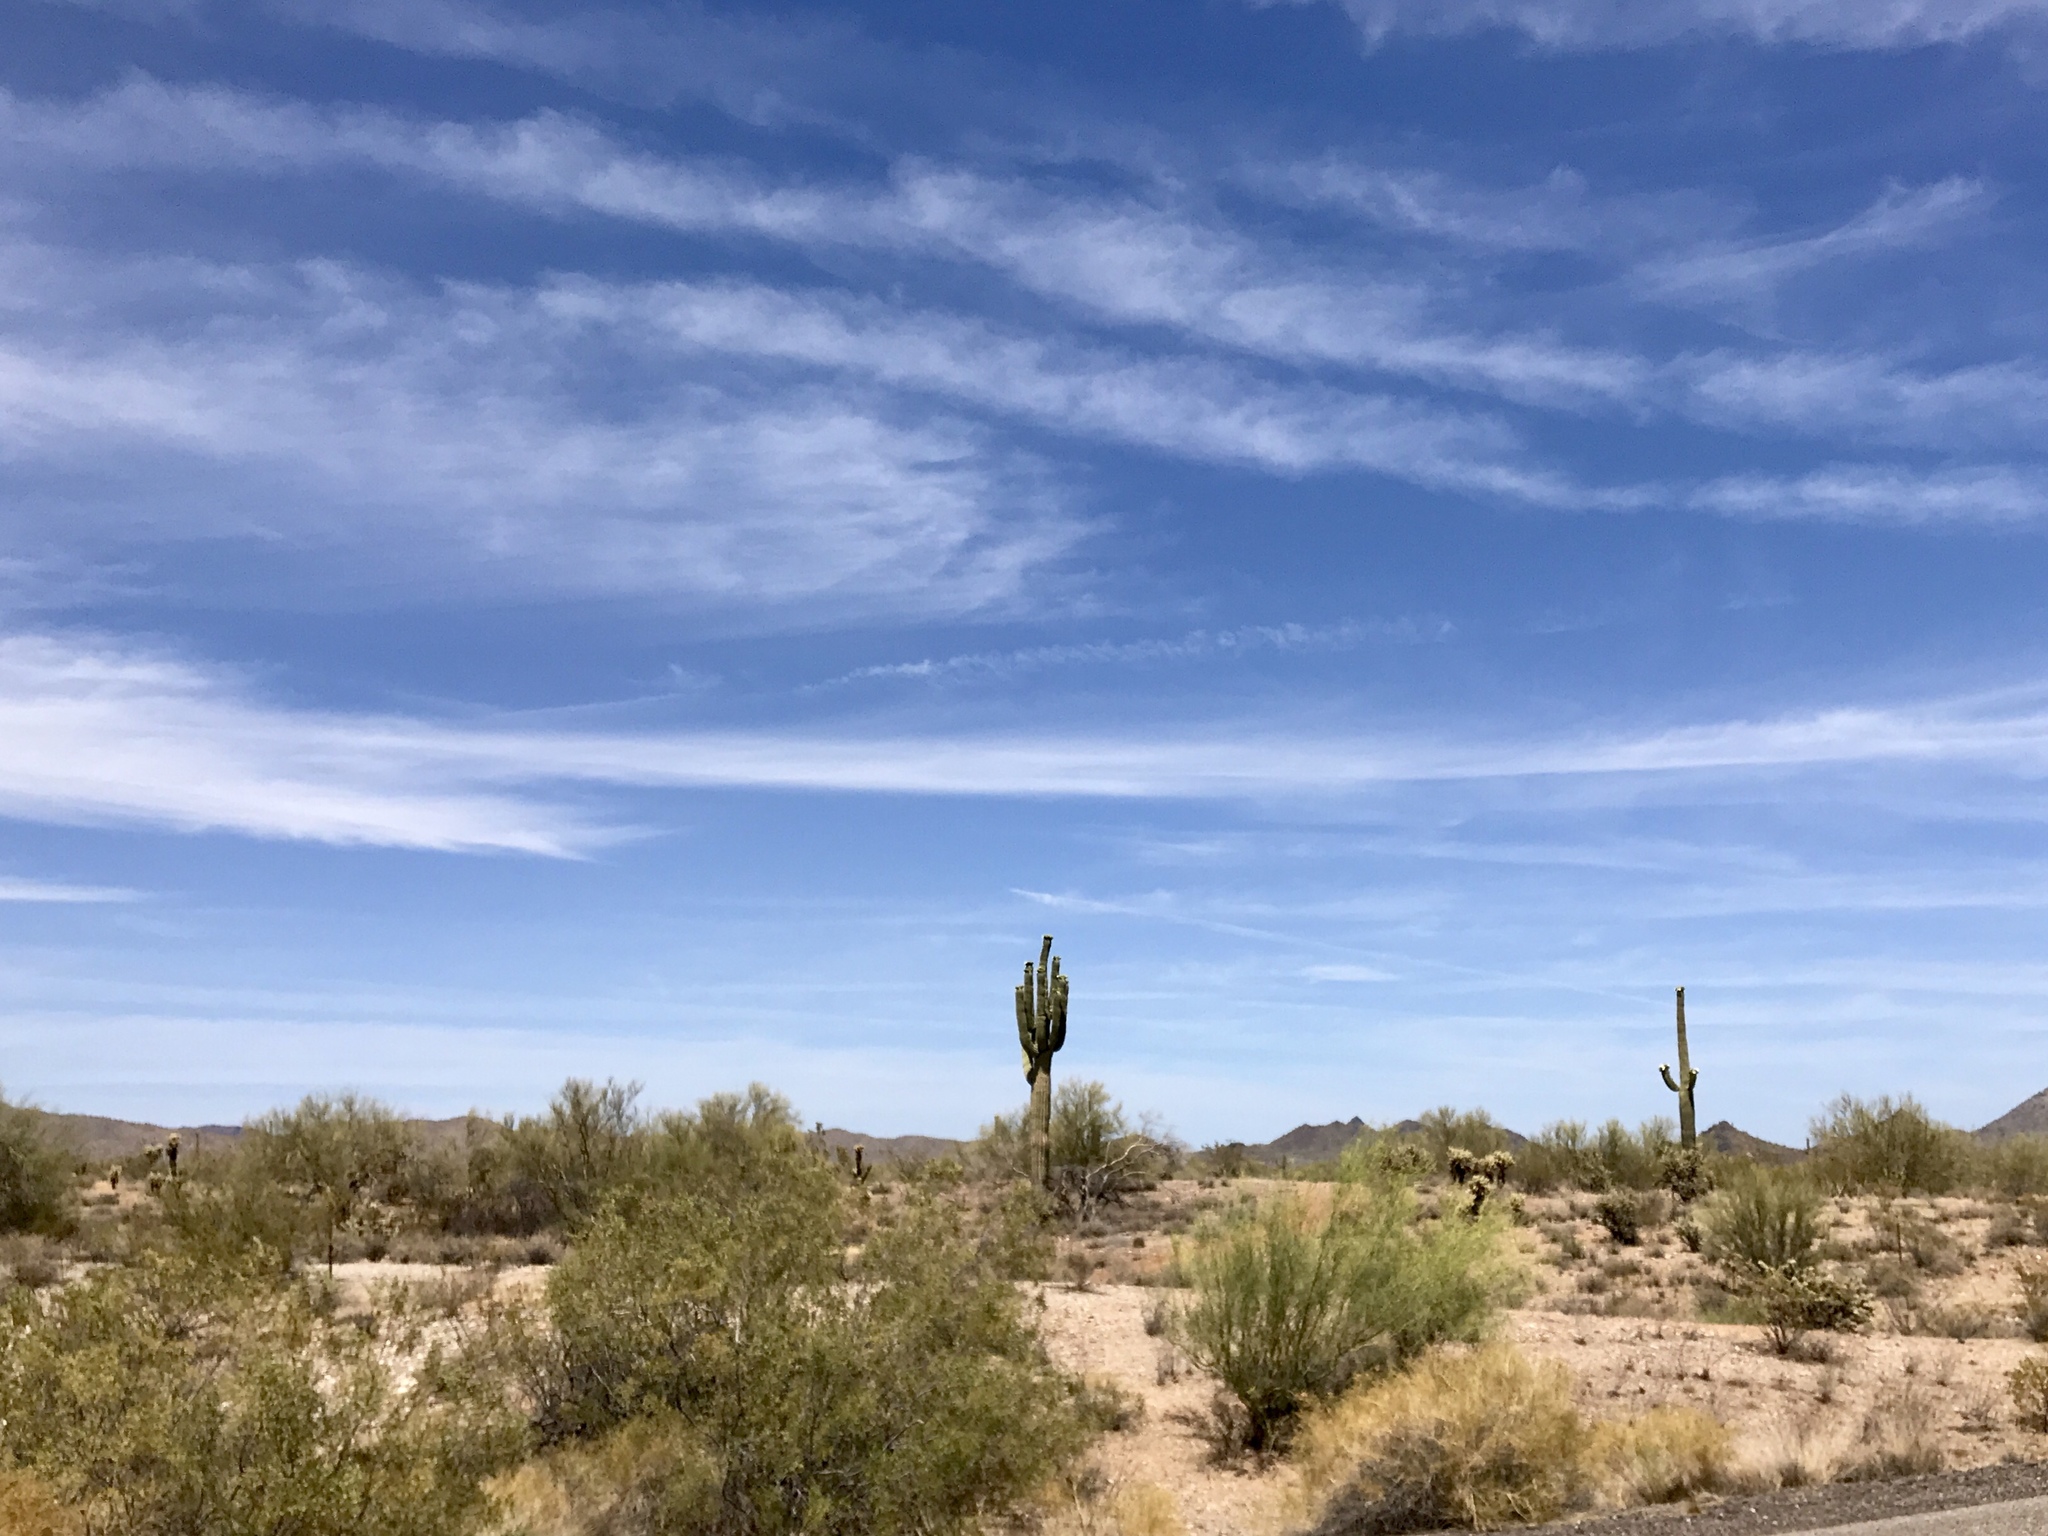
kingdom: Plantae
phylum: Tracheophyta
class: Magnoliopsida
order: Caryophyllales
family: Cactaceae
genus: Carnegiea
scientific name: Carnegiea gigantea
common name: Saguaro
